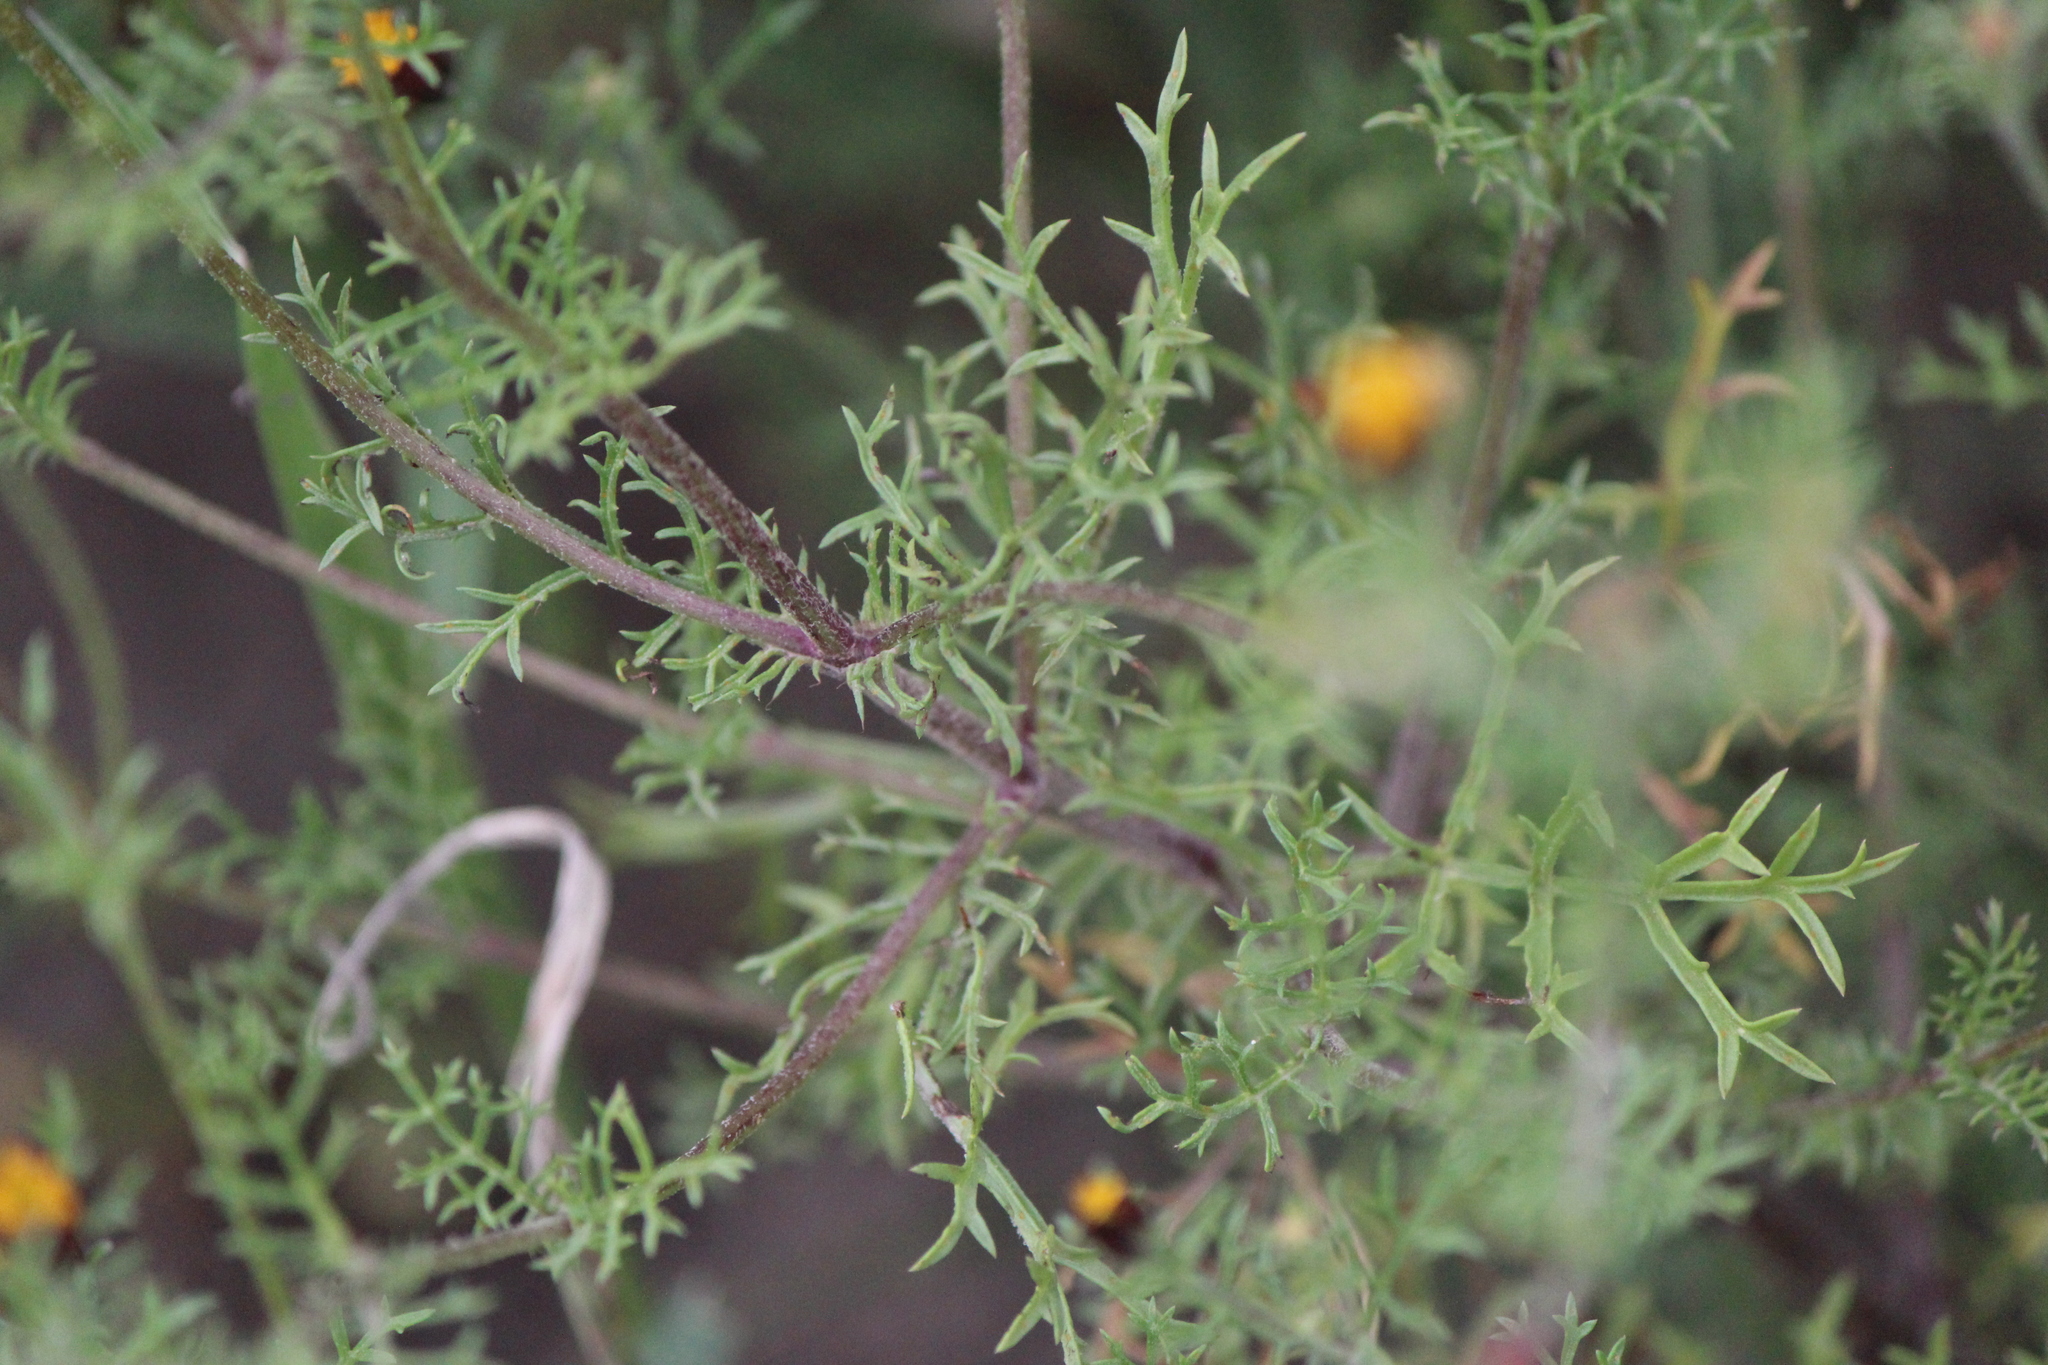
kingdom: Plantae
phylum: Tracheophyta
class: Magnoliopsida
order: Asterales
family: Asteraceae
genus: Dyssodia
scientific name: Dyssodia papposa
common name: Dogweed
